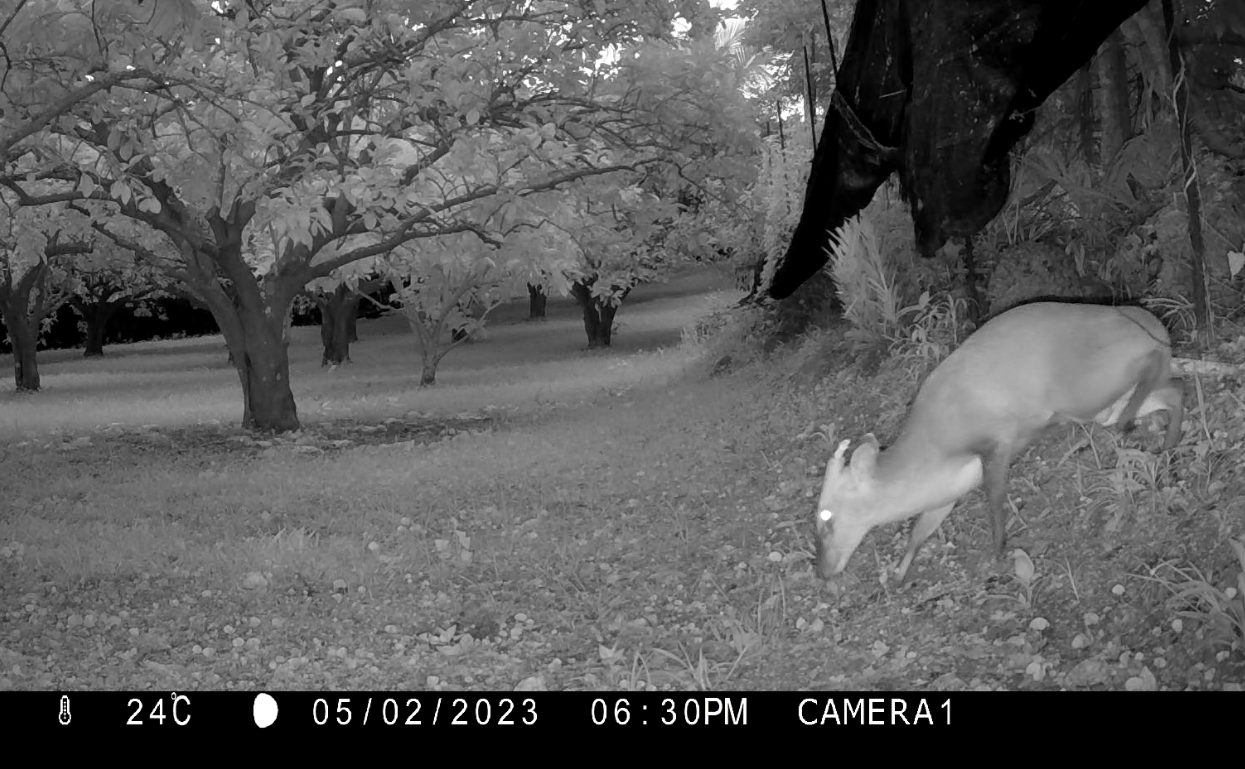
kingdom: Animalia
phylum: Chordata
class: Mammalia
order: Artiodactyla
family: Cervidae
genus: Muntiacus
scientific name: Muntiacus reevesi
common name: Reeves' muntjac
